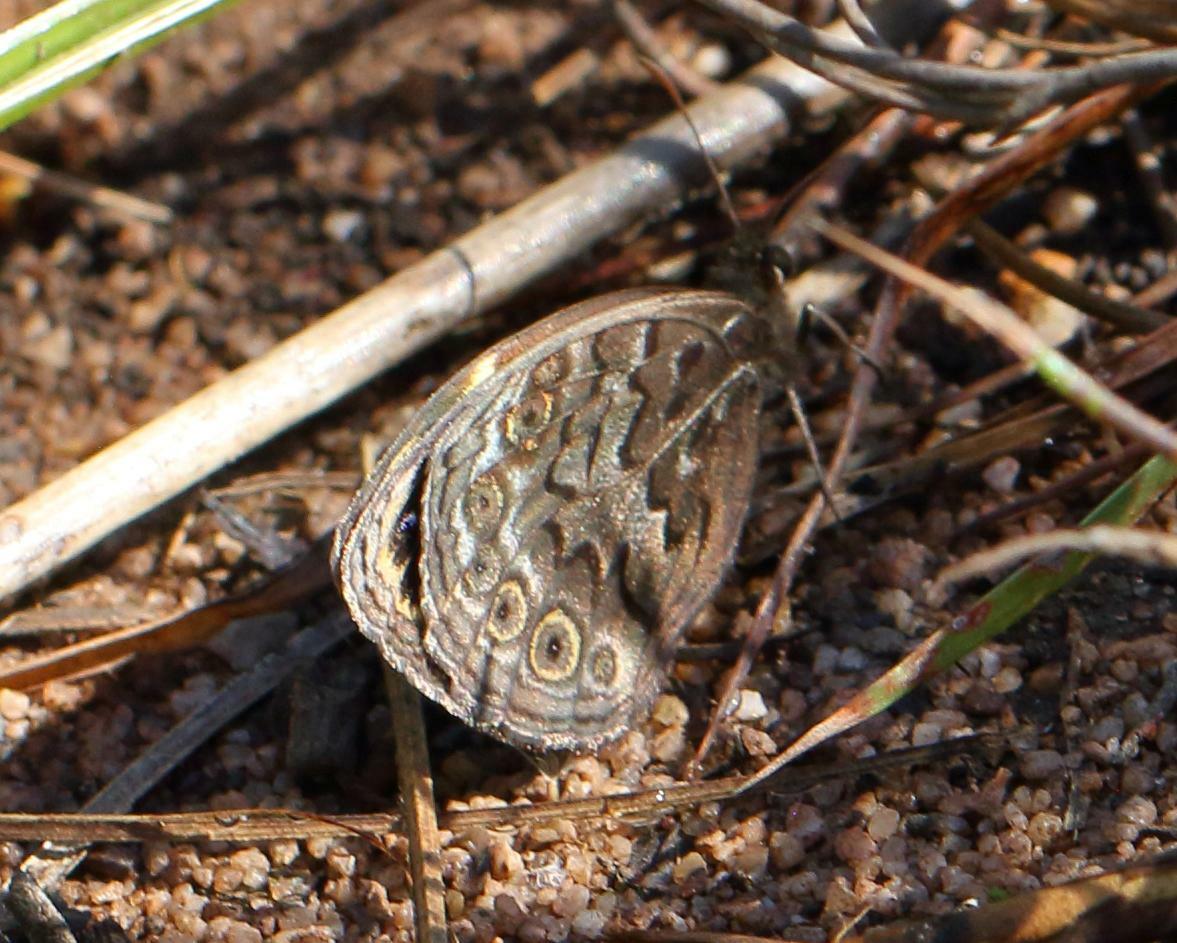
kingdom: Animalia
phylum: Arthropoda
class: Insecta
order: Lepidoptera
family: Nymphalidae
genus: Dira
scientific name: Dira clytus
